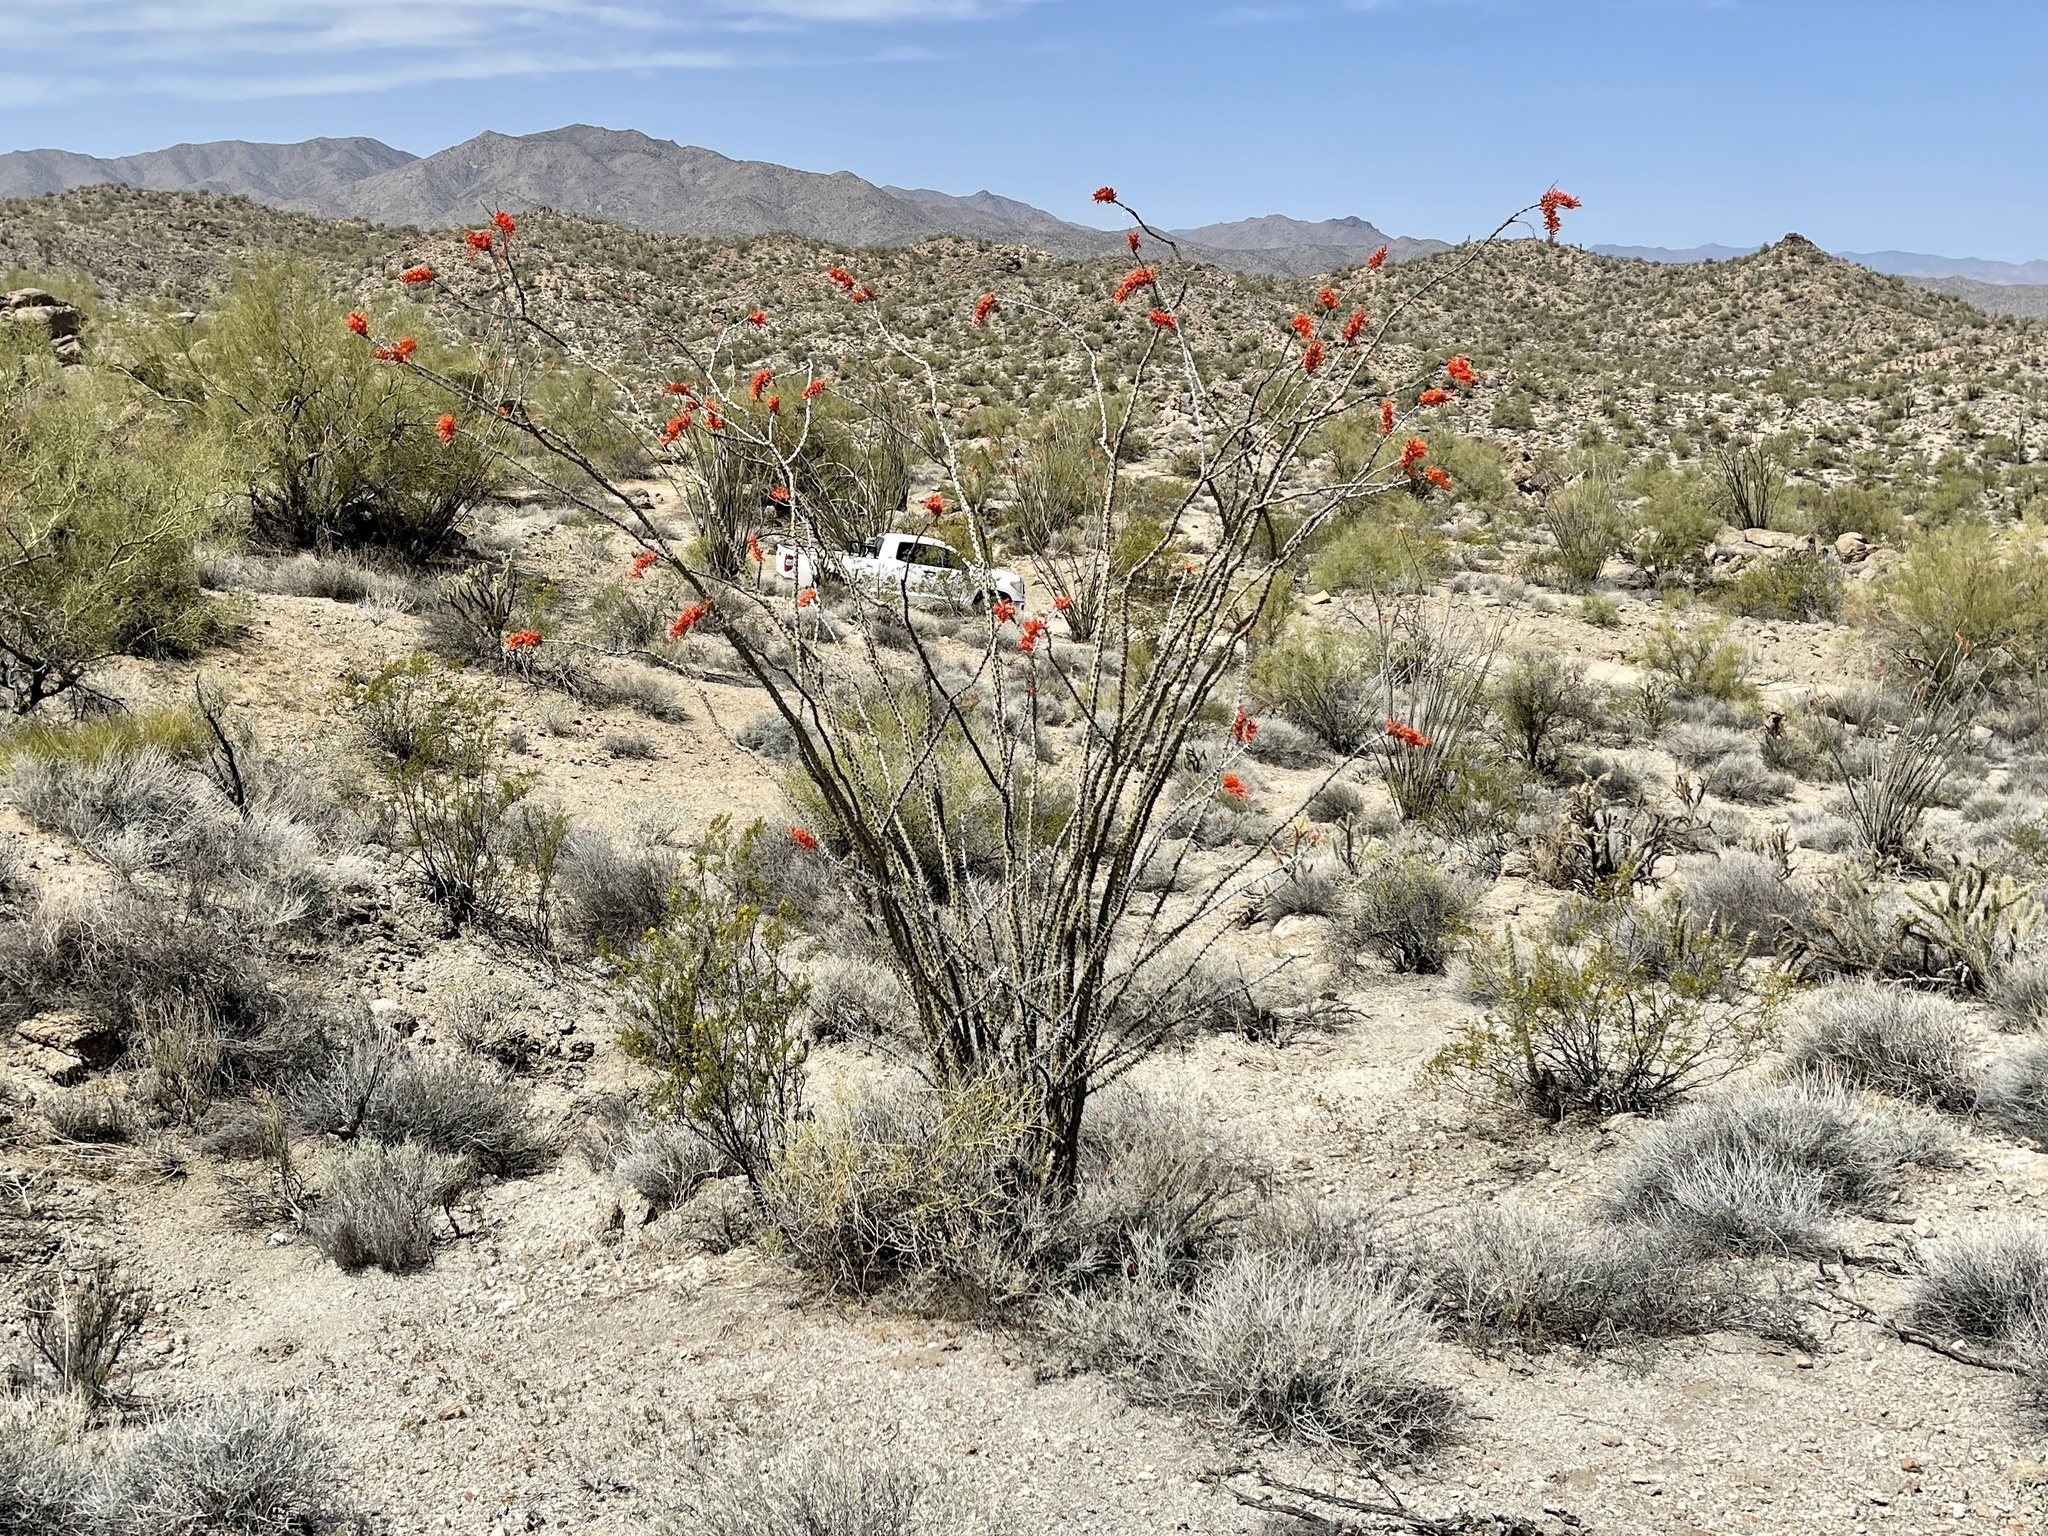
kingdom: Plantae
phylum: Tracheophyta
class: Magnoliopsida
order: Ericales
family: Fouquieriaceae
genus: Fouquieria
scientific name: Fouquieria splendens
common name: Vine-cactus
